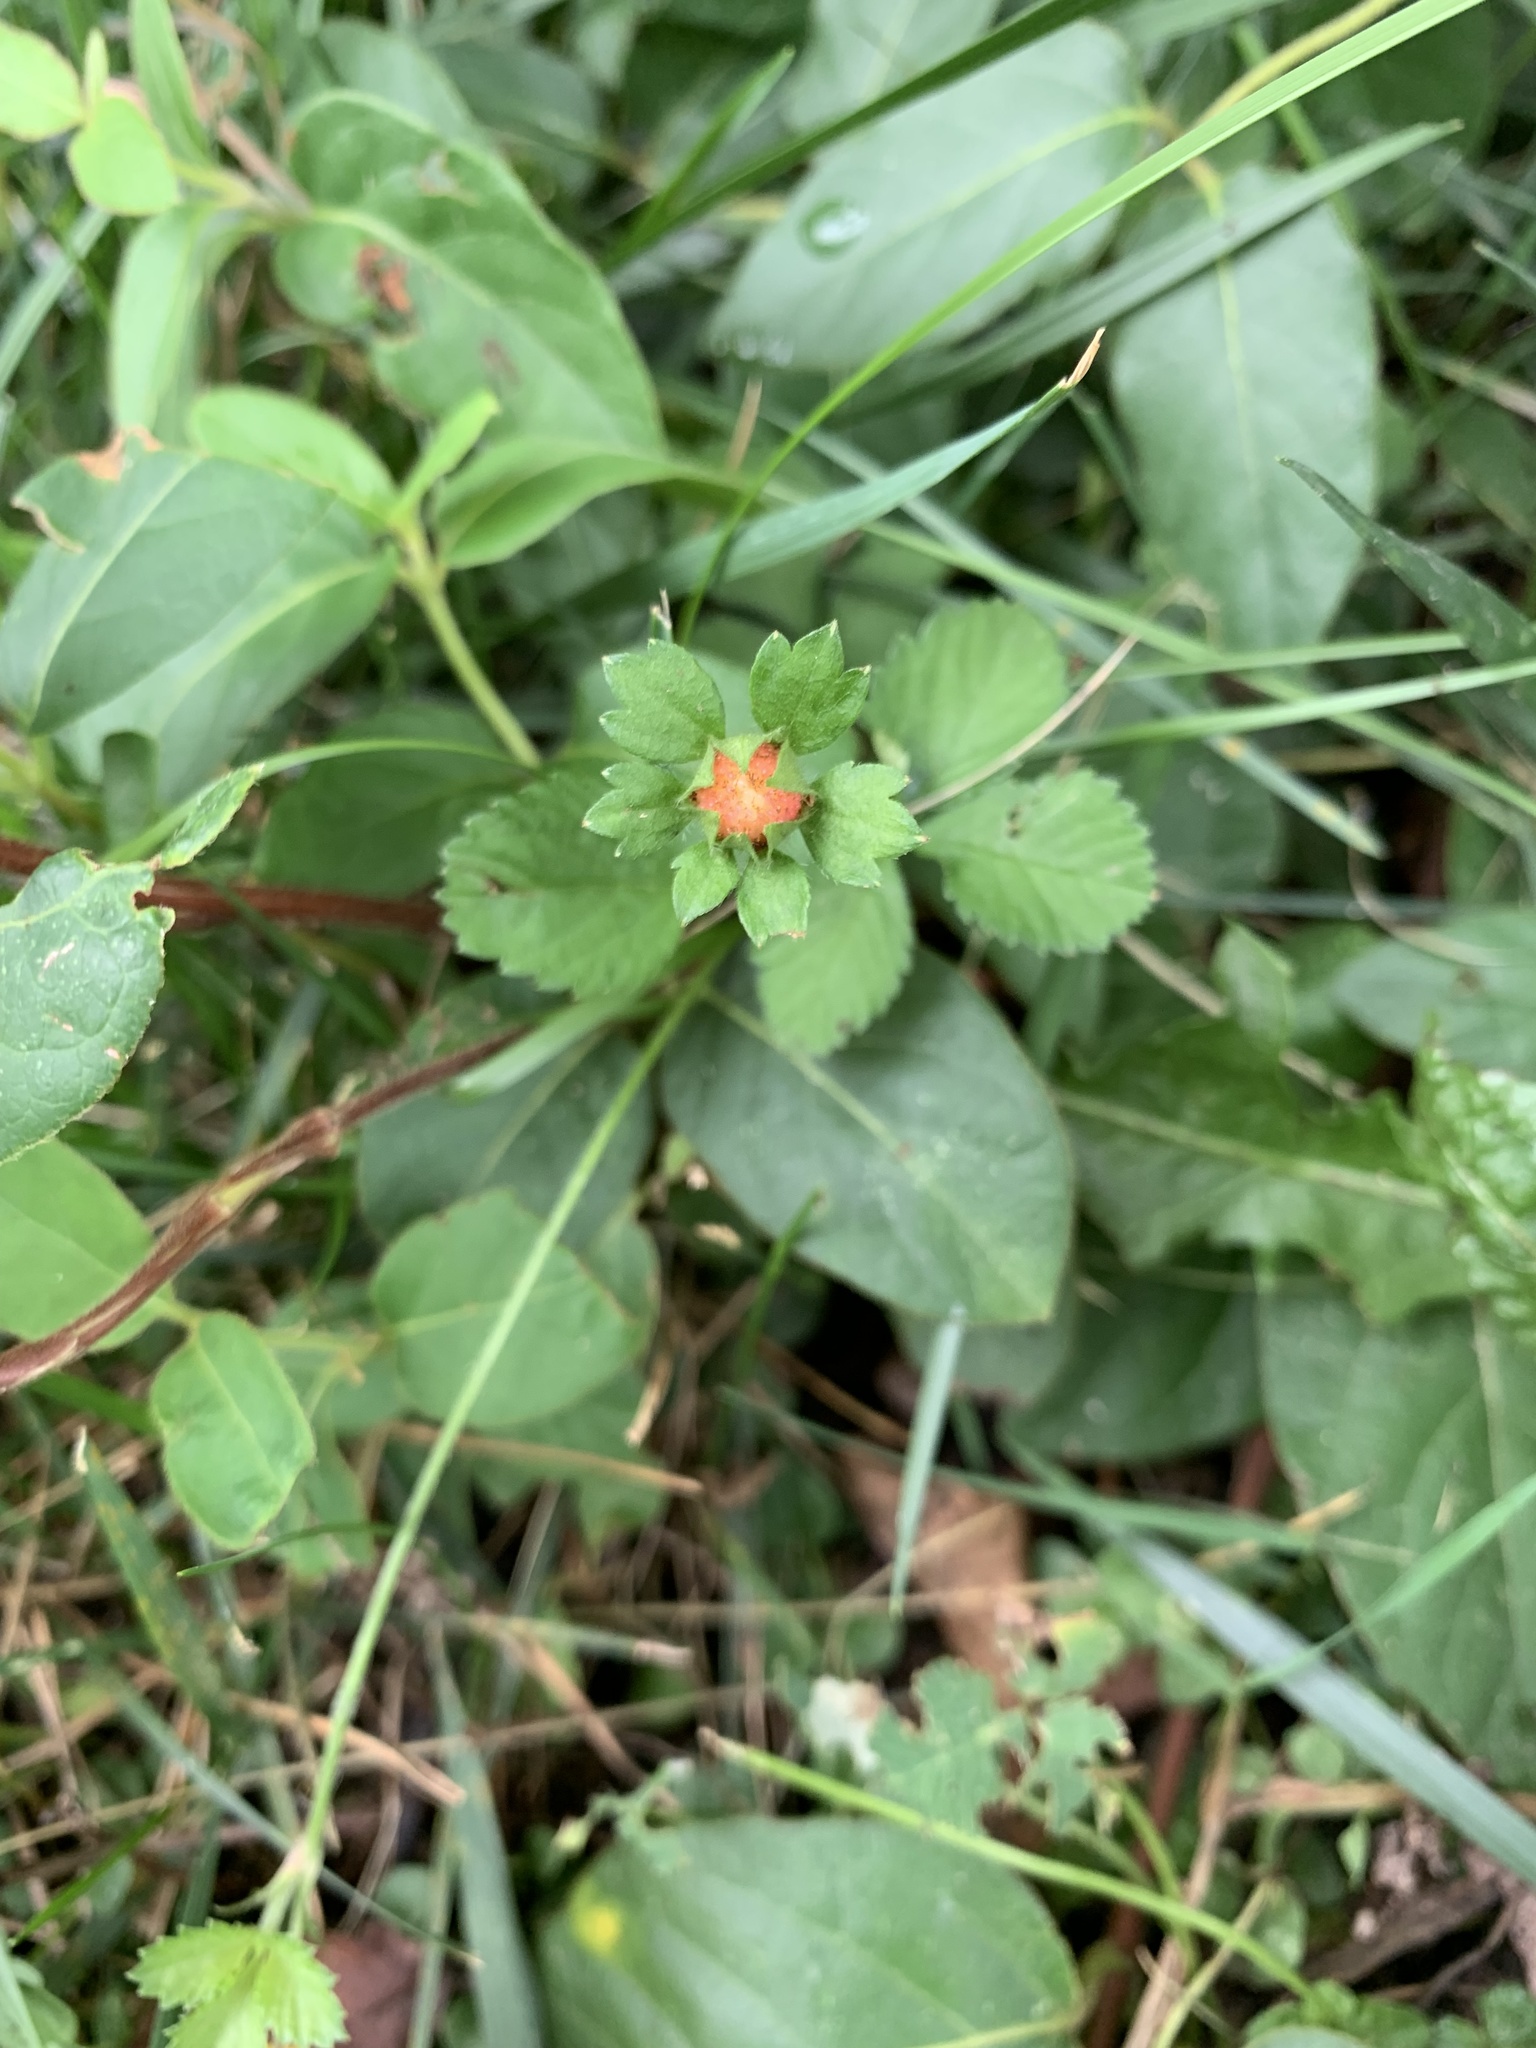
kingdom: Plantae
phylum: Tracheophyta
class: Magnoliopsida
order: Rosales
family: Rosaceae
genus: Potentilla
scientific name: Potentilla indica
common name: Yellow-flowered strawberry
